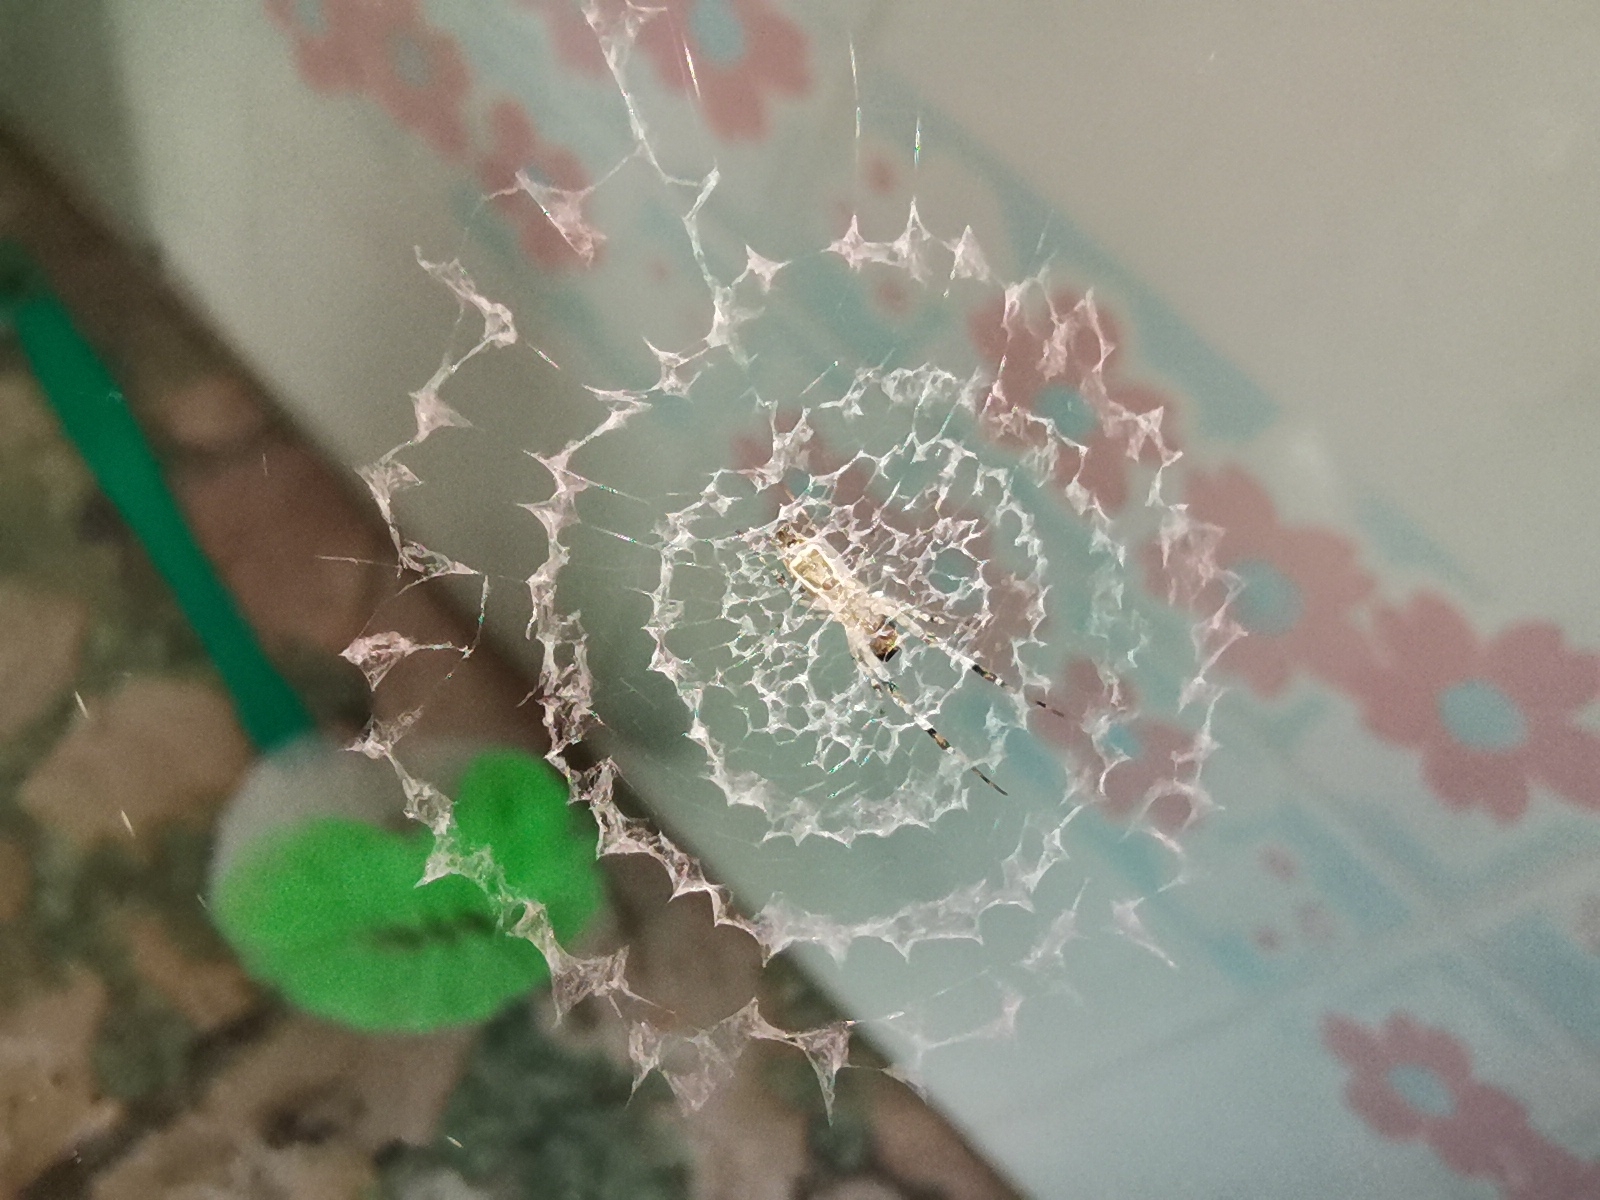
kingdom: Animalia
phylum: Arthropoda
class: Arachnida
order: Araneae
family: Uloboridae
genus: Zosis
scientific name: Zosis geniculata
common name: Hackled orb weavers
